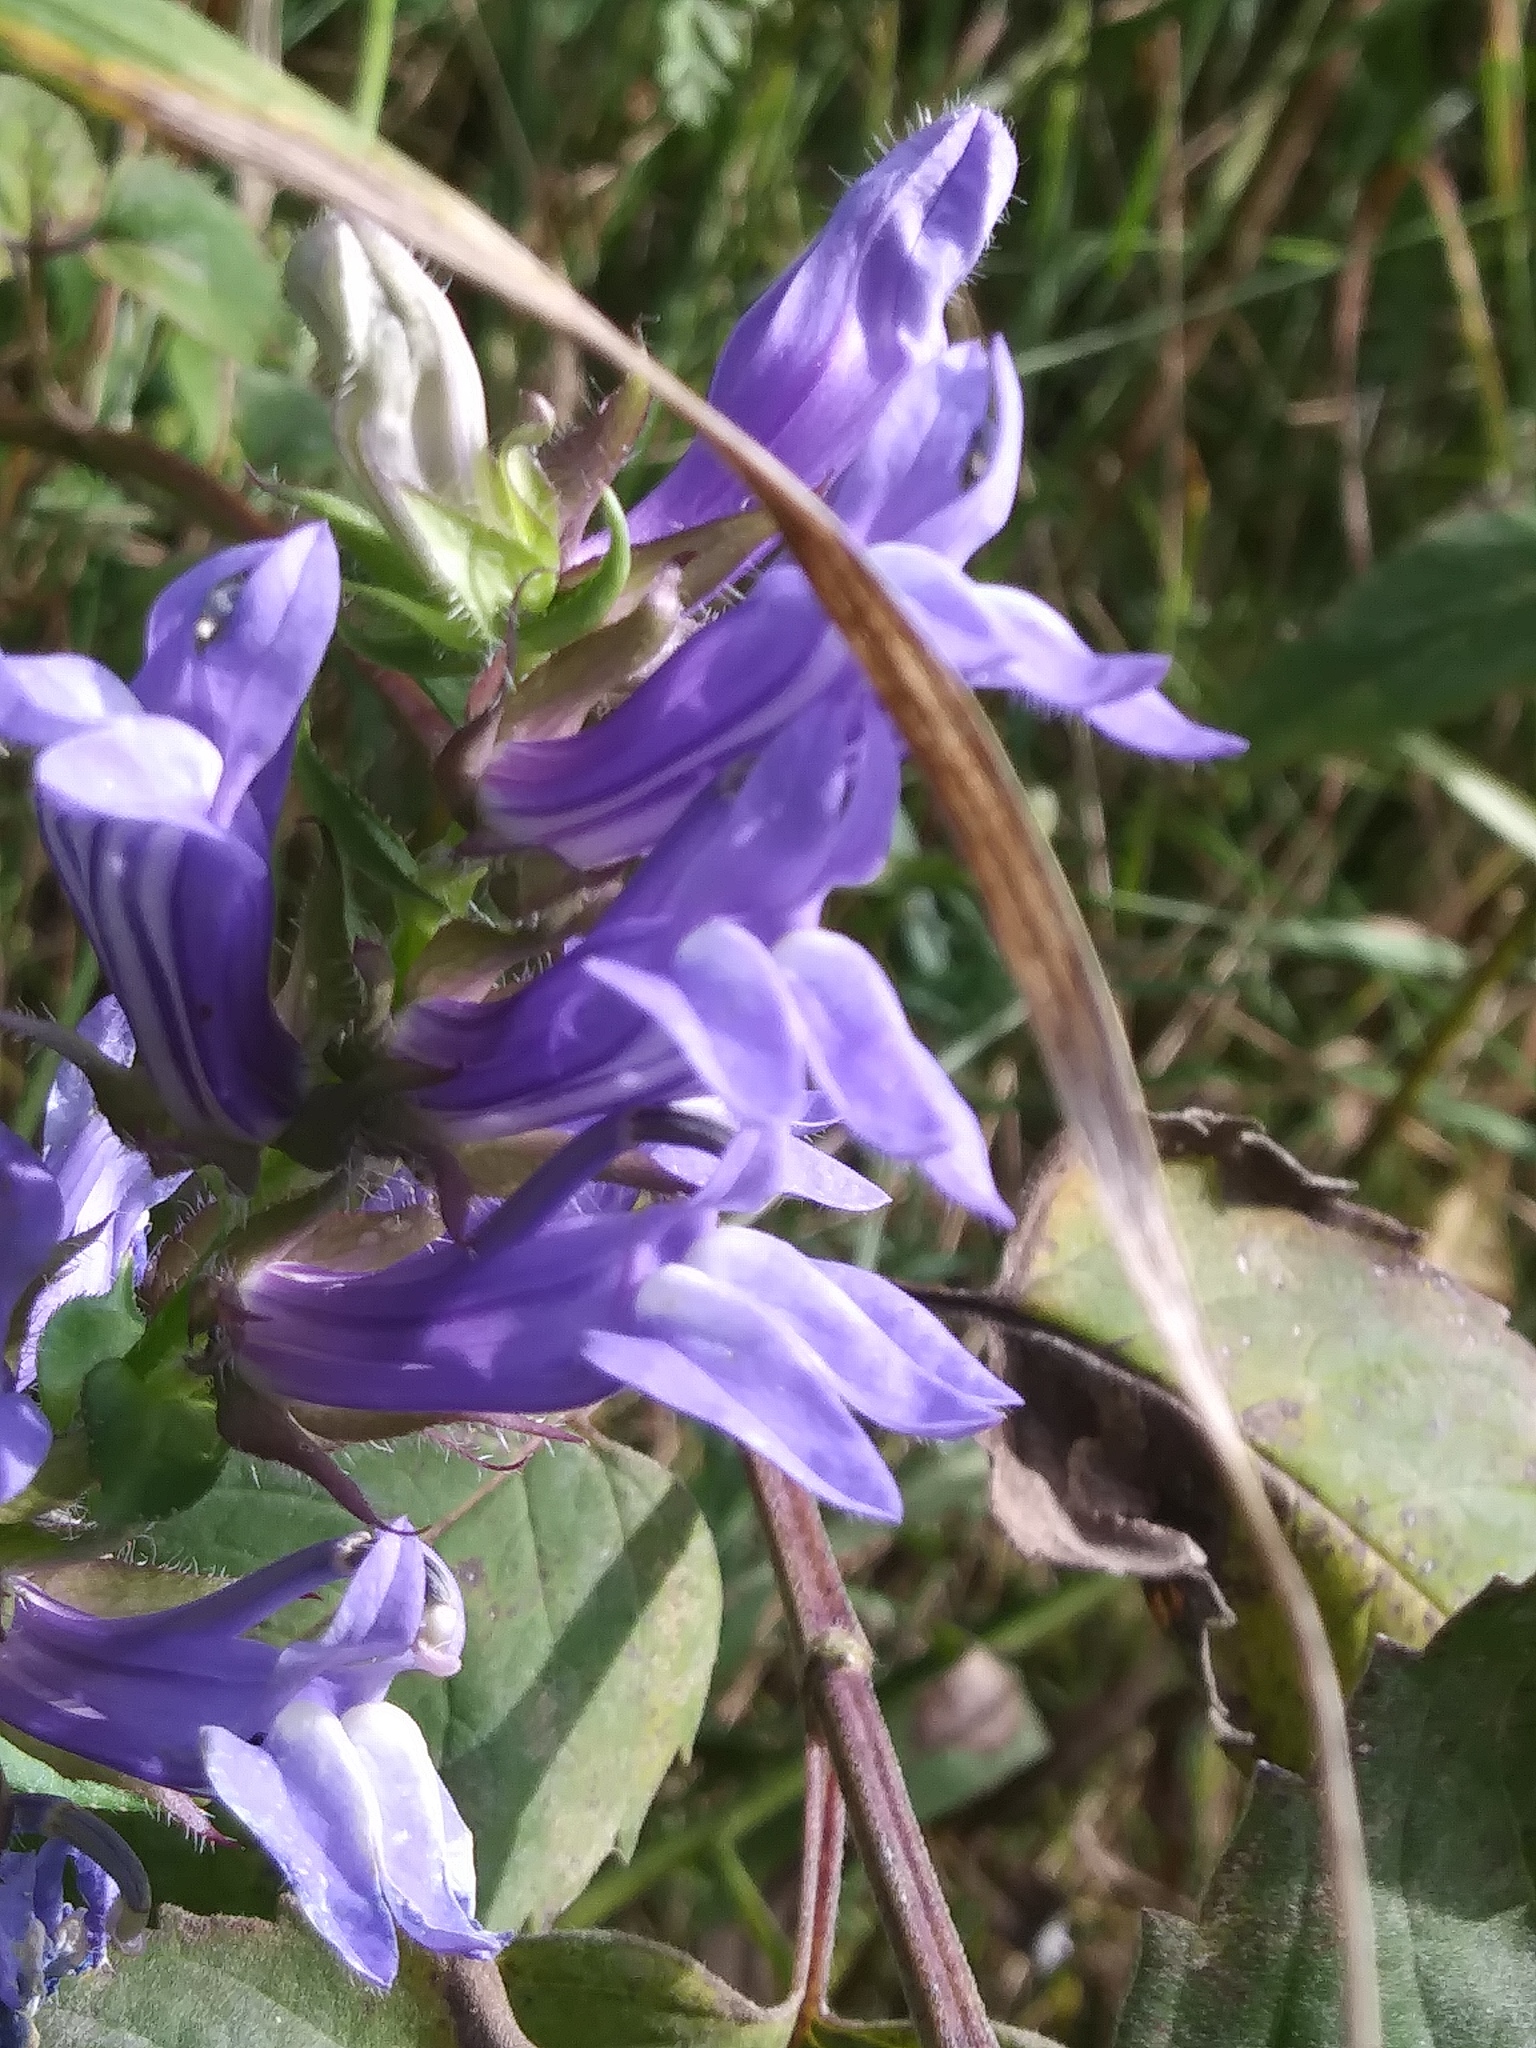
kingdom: Plantae
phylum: Tracheophyta
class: Magnoliopsida
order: Asterales
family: Campanulaceae
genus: Lobelia
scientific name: Lobelia siphilitica
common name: Great lobelia
